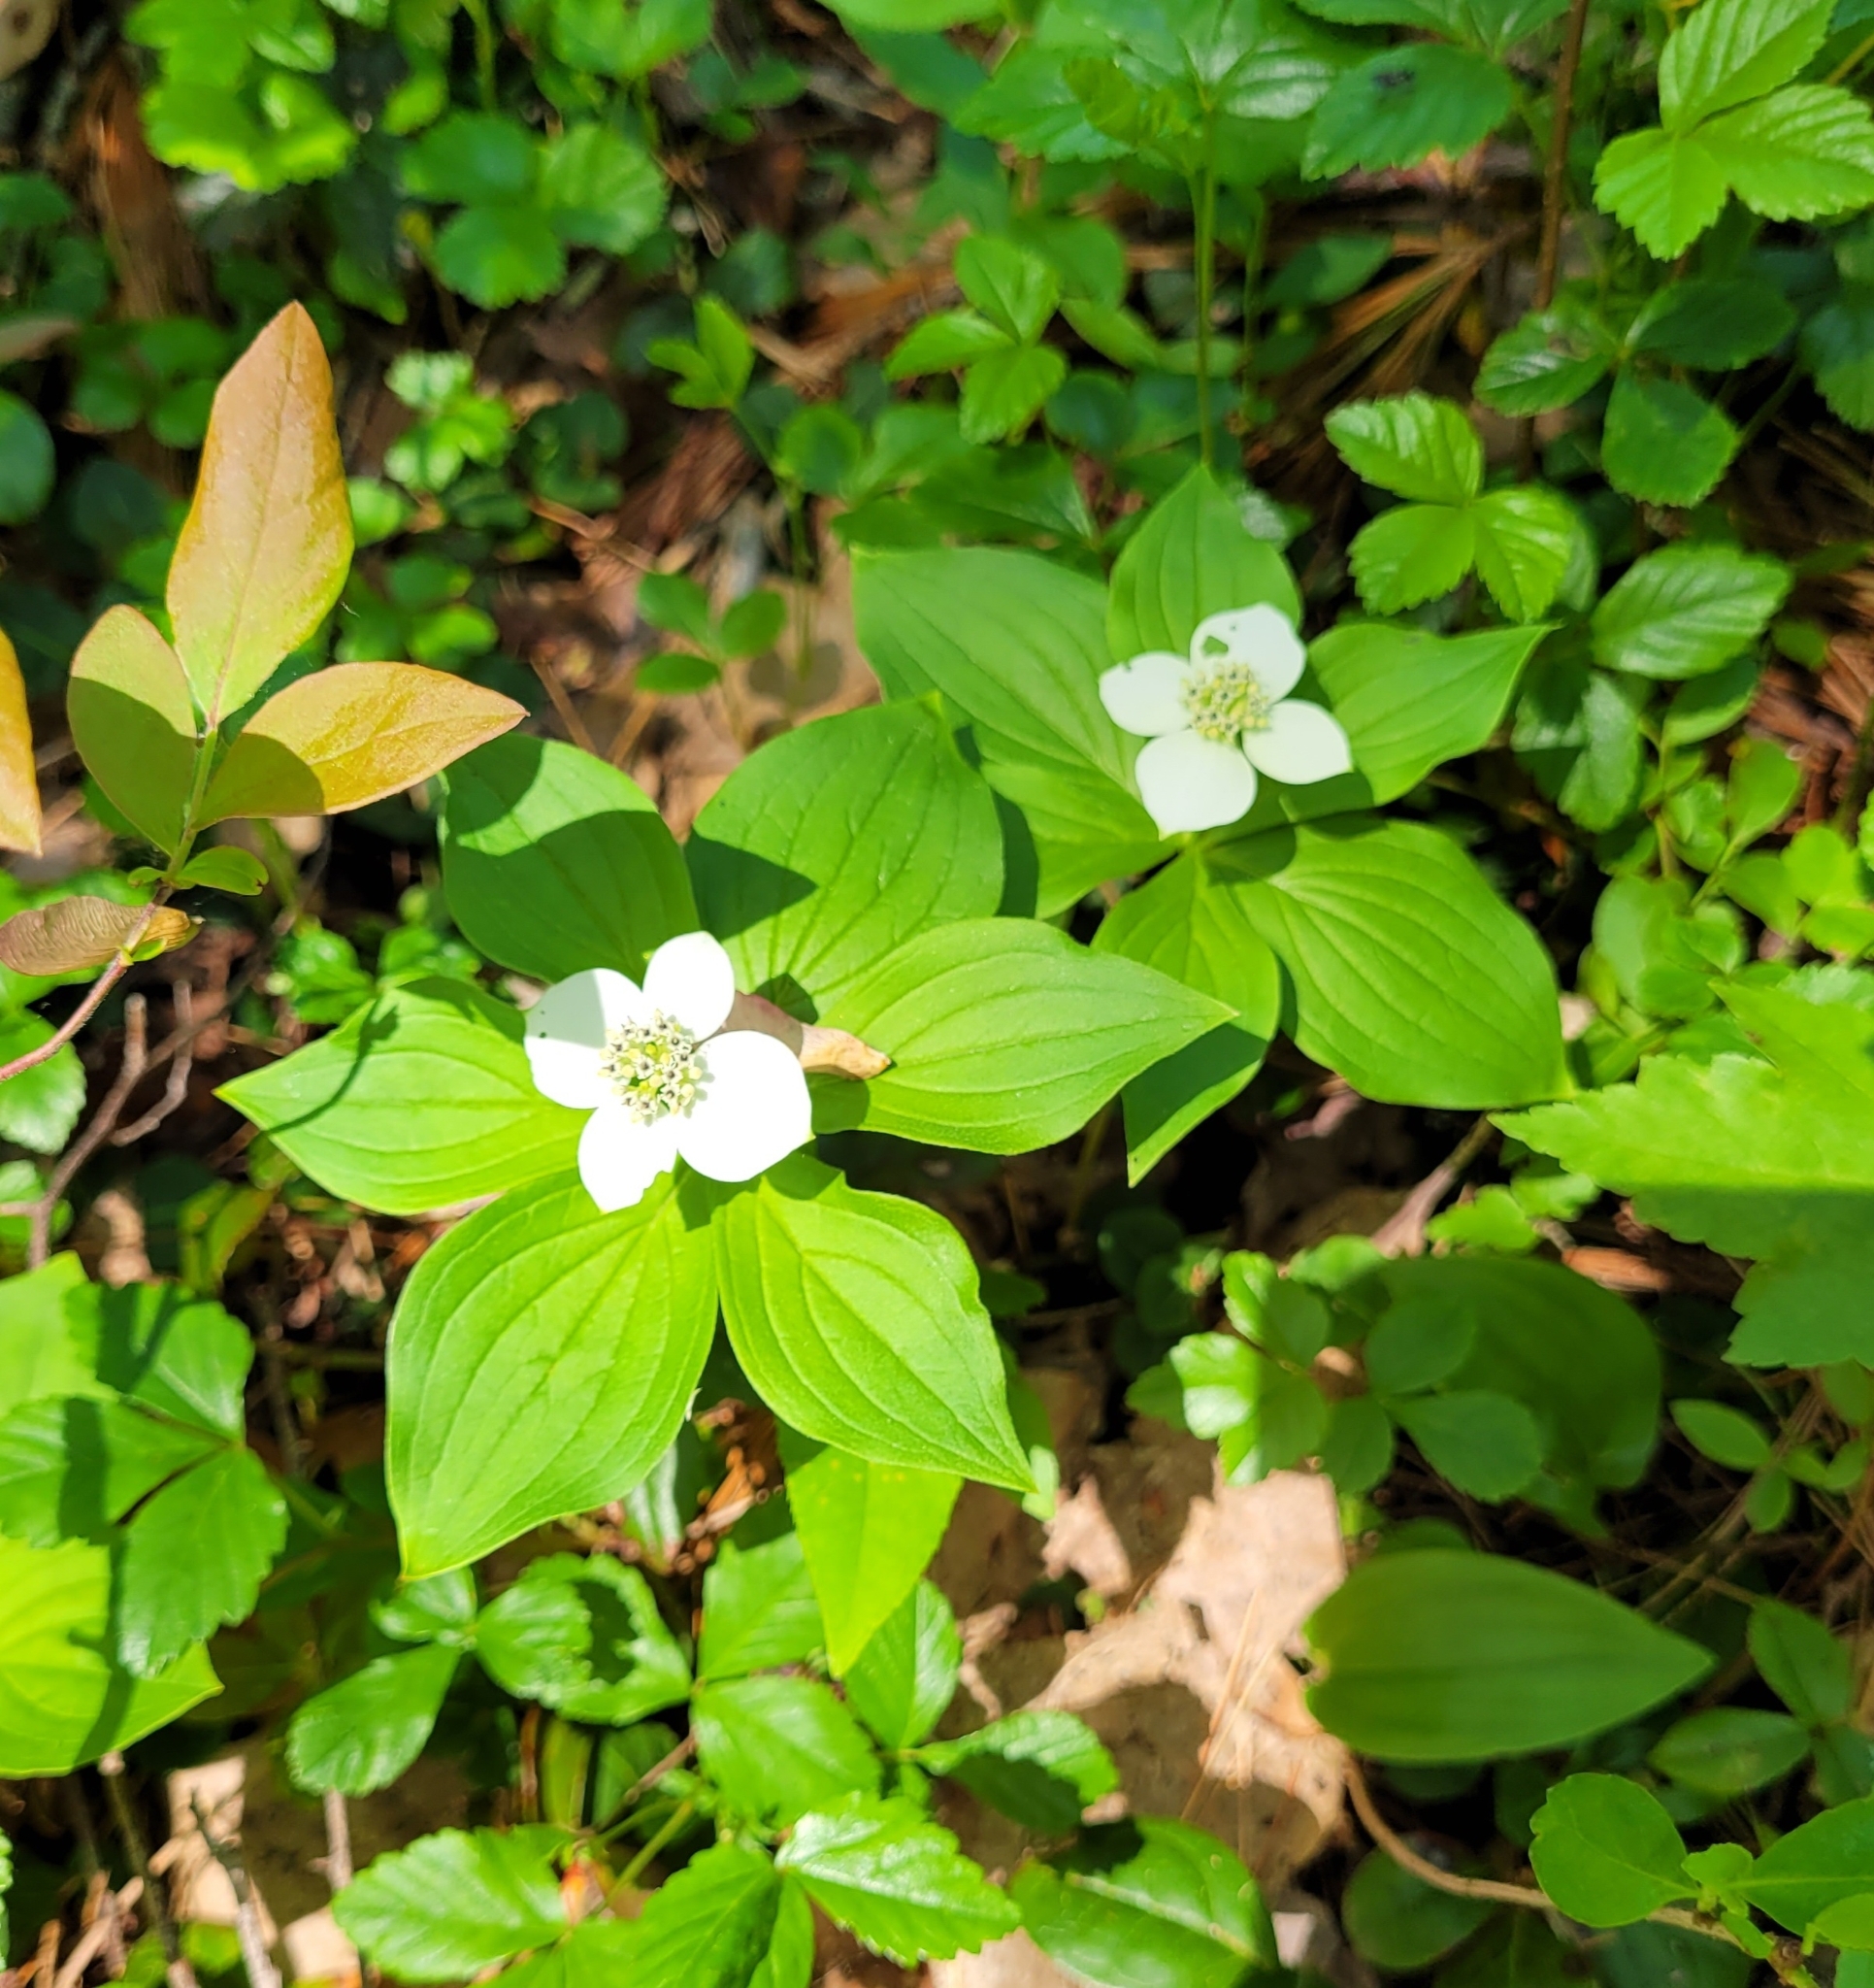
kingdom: Plantae
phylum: Tracheophyta
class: Magnoliopsida
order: Cornales
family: Cornaceae
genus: Cornus
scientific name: Cornus canadensis
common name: Creeping dogwood
